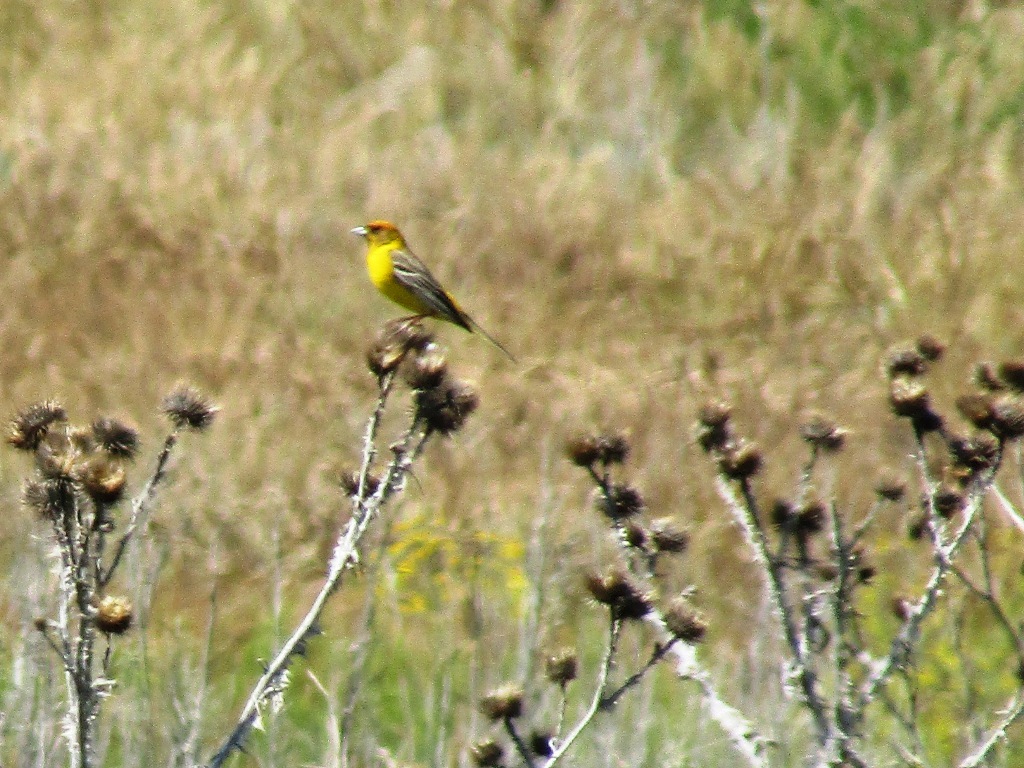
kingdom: Animalia
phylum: Chordata
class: Aves
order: Passeriformes
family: Emberizidae
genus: Emberiza
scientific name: Emberiza bruniceps
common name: Red-headed bunting
